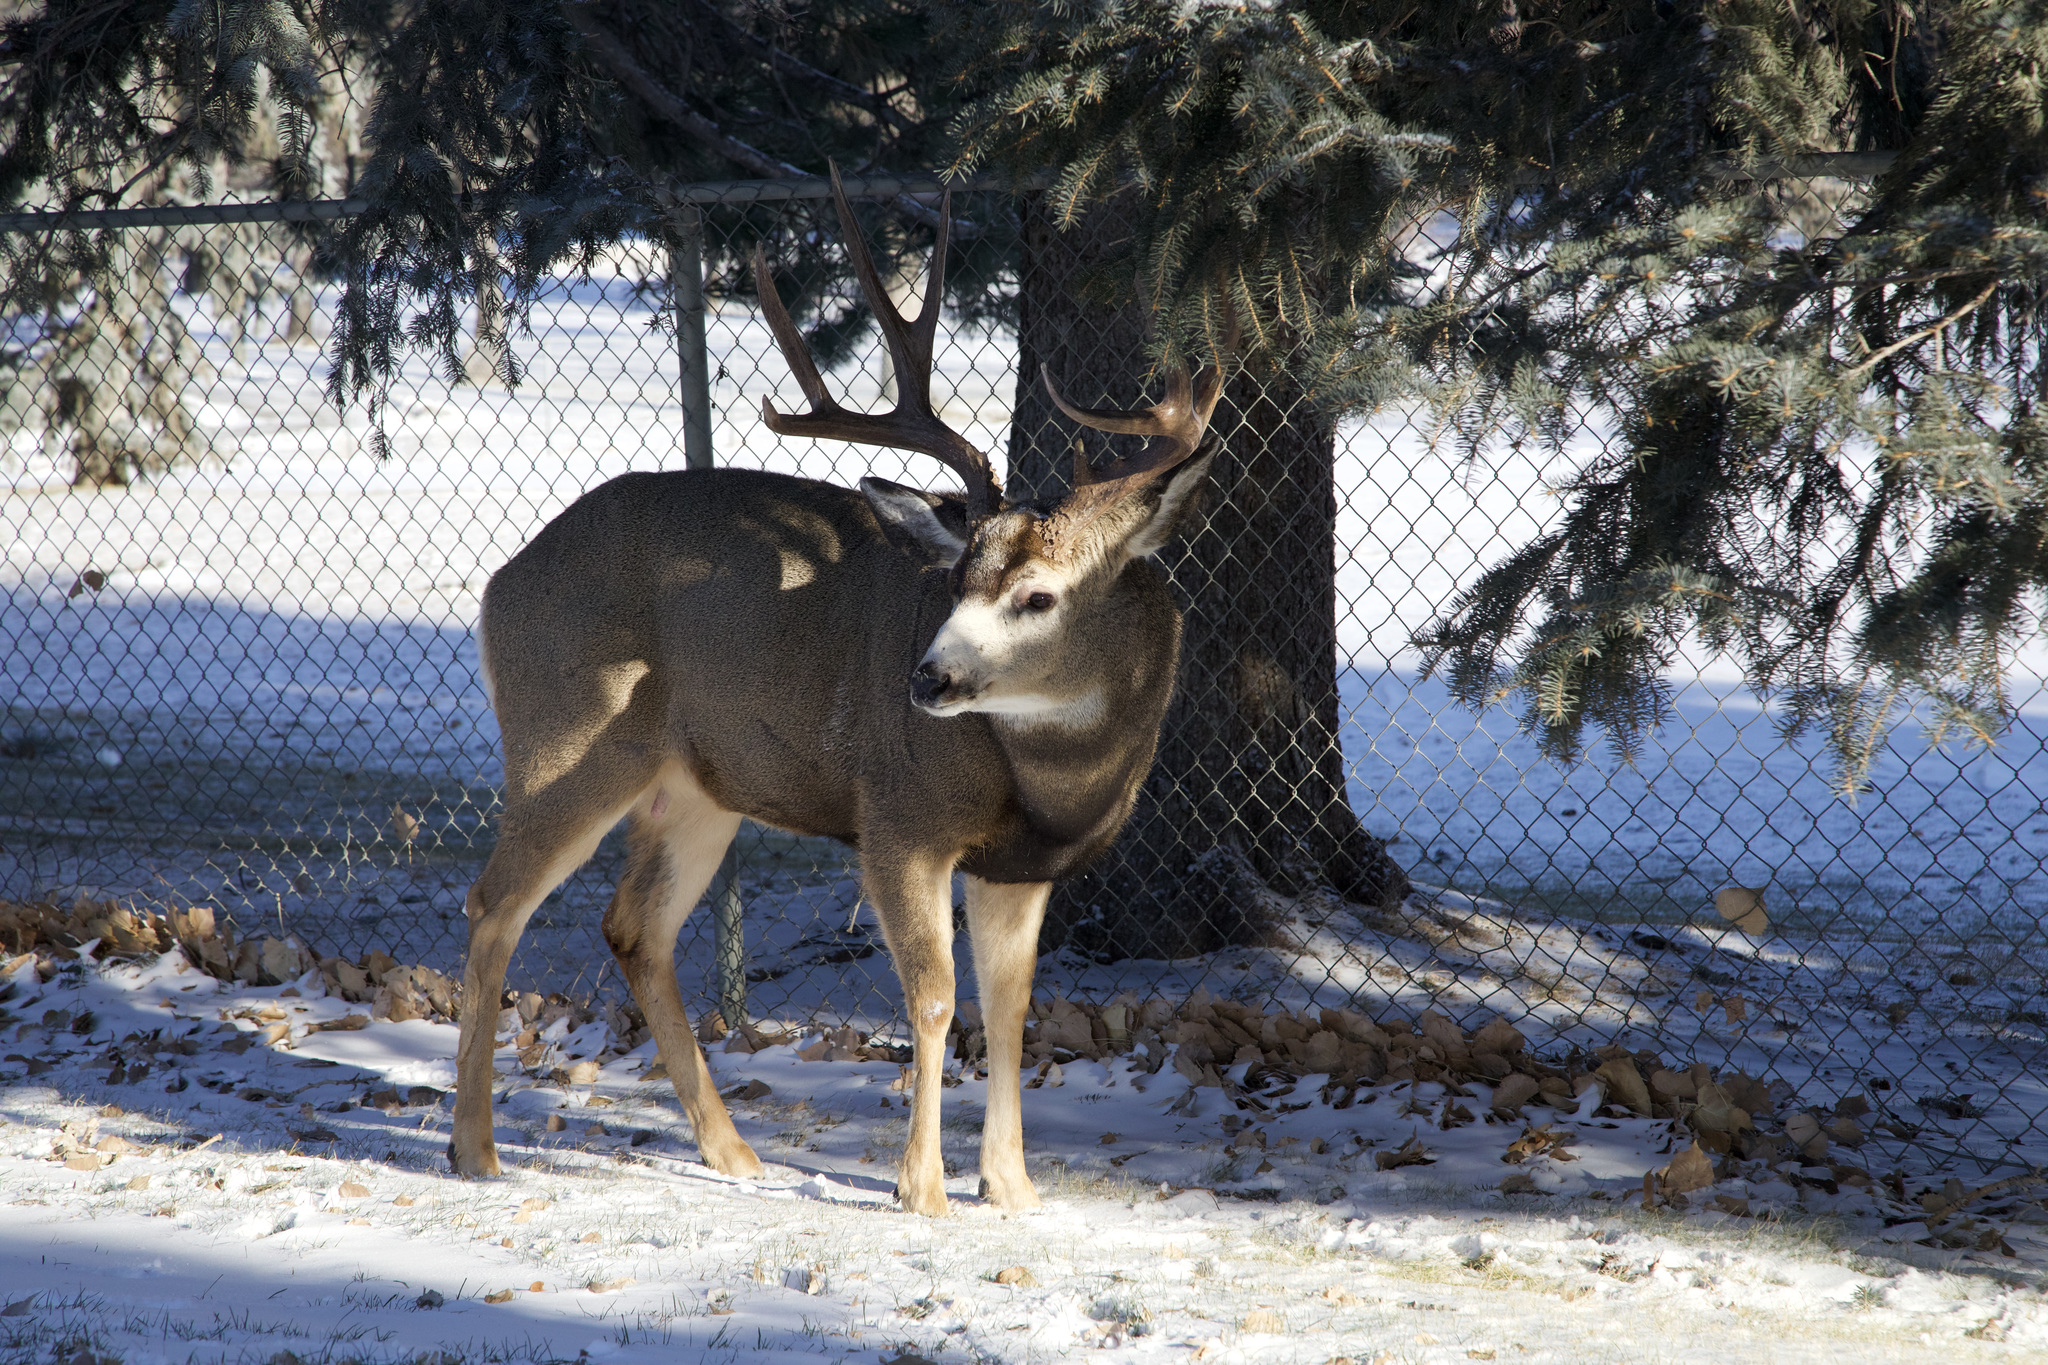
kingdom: Animalia
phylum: Chordata
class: Mammalia
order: Artiodactyla
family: Cervidae
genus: Odocoileus
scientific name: Odocoileus hemionus
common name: Mule deer
